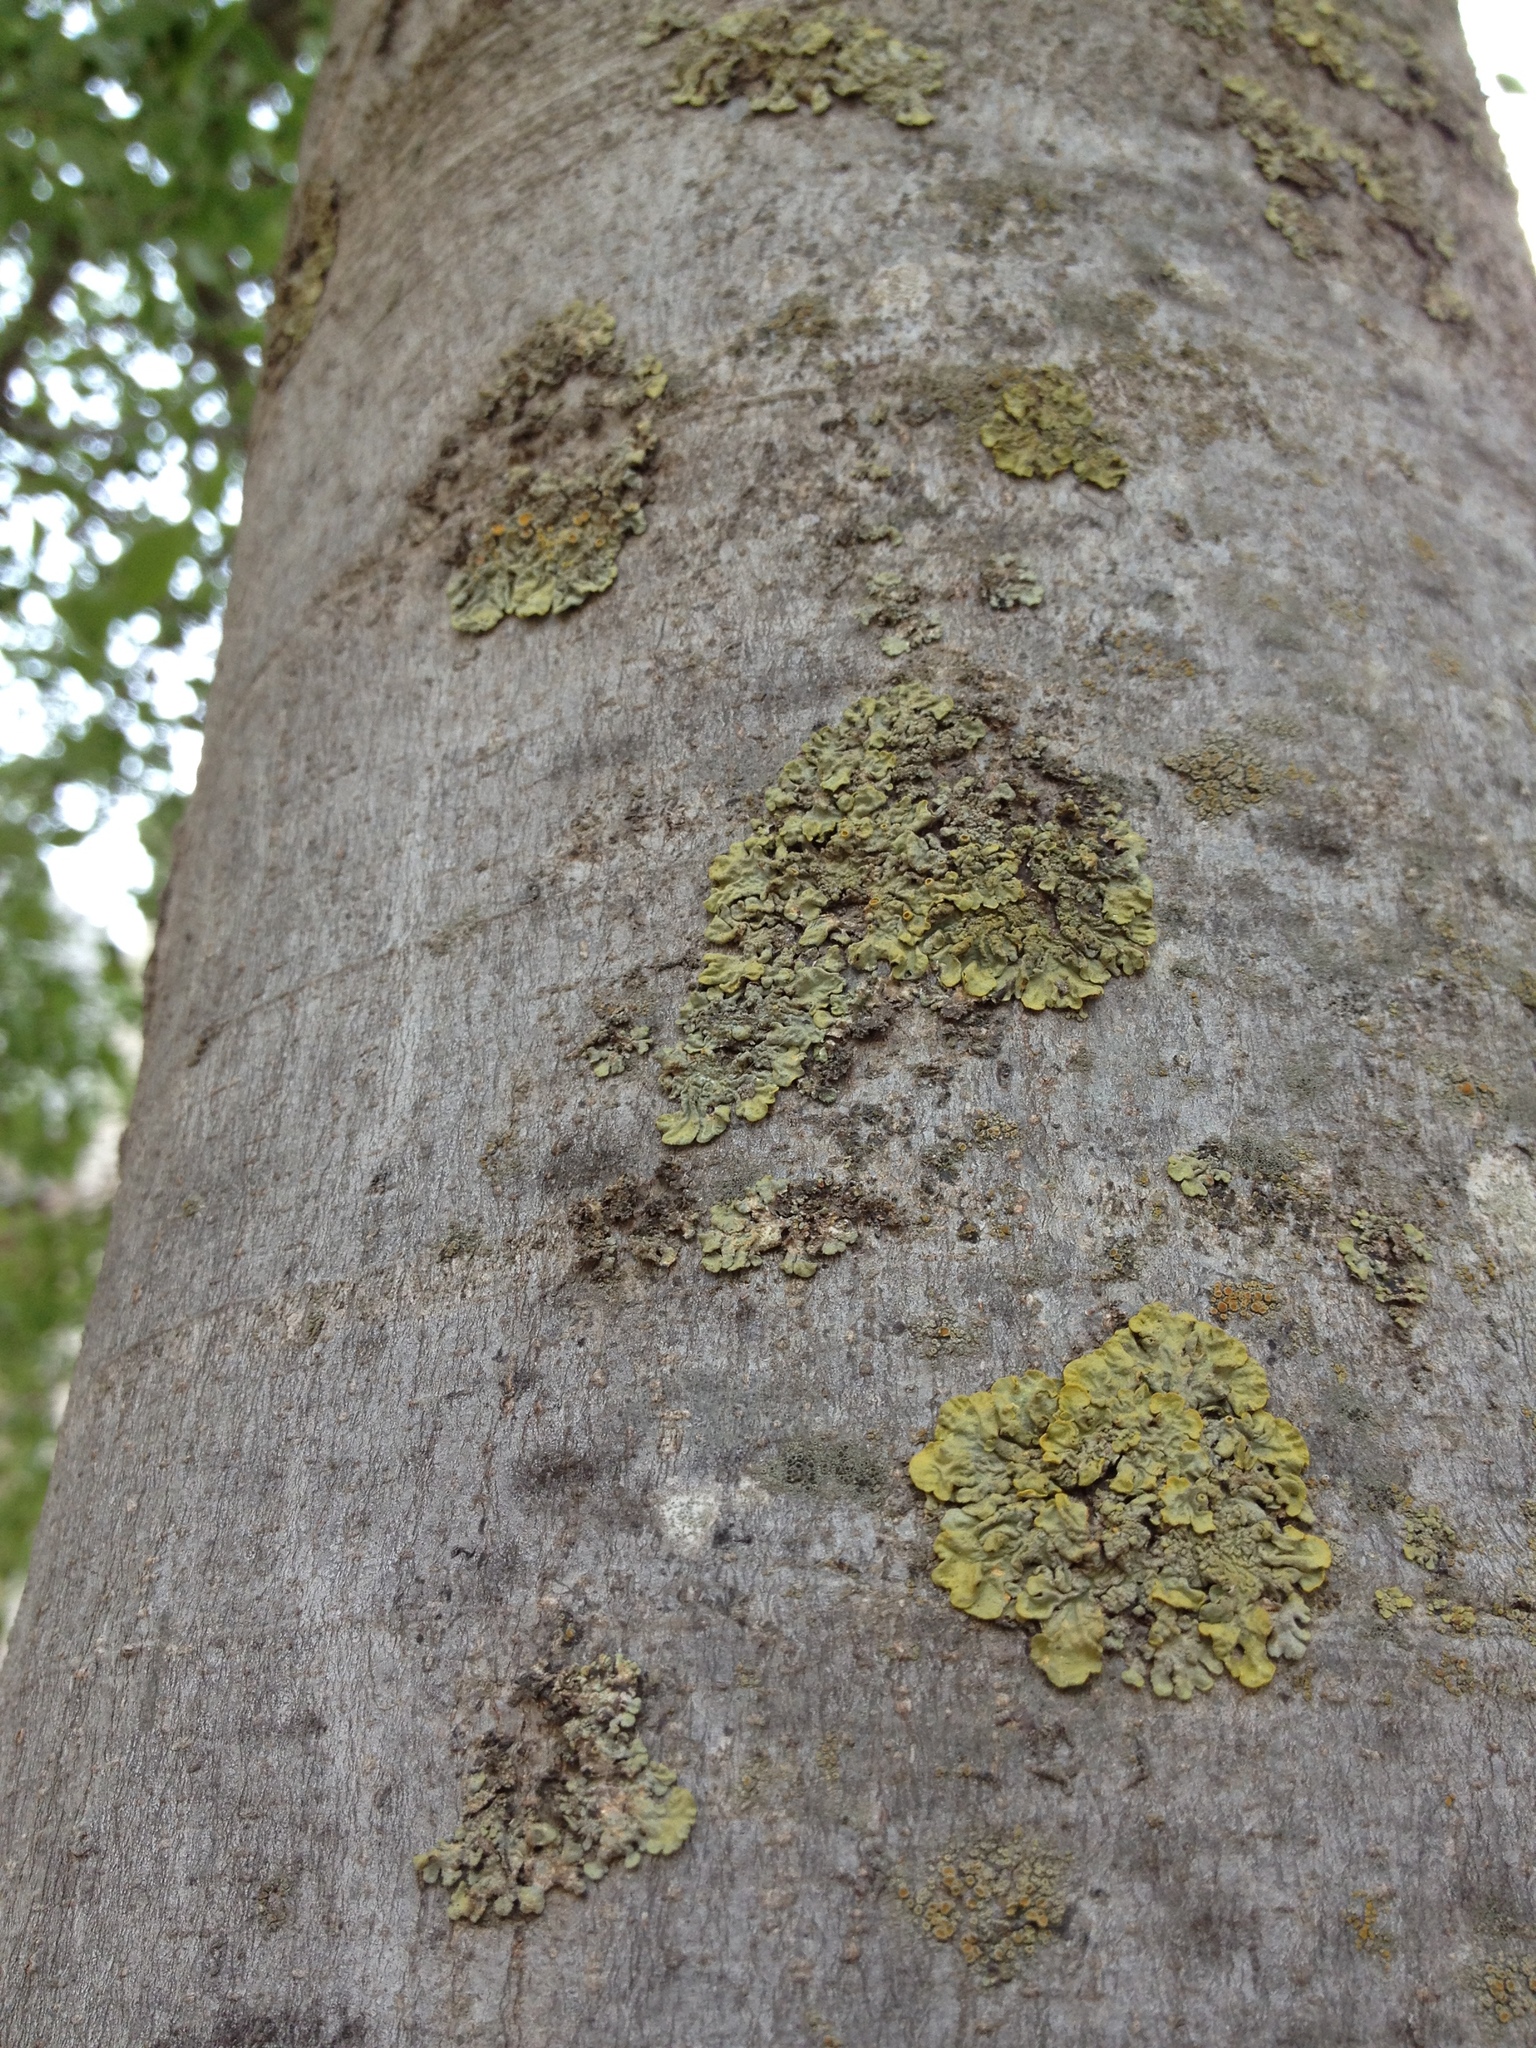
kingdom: Fungi
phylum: Ascomycota
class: Lecanoromycetes
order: Teloschistales
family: Teloschistaceae
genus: Xanthoria
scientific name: Xanthoria parietina
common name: Common orange lichen
